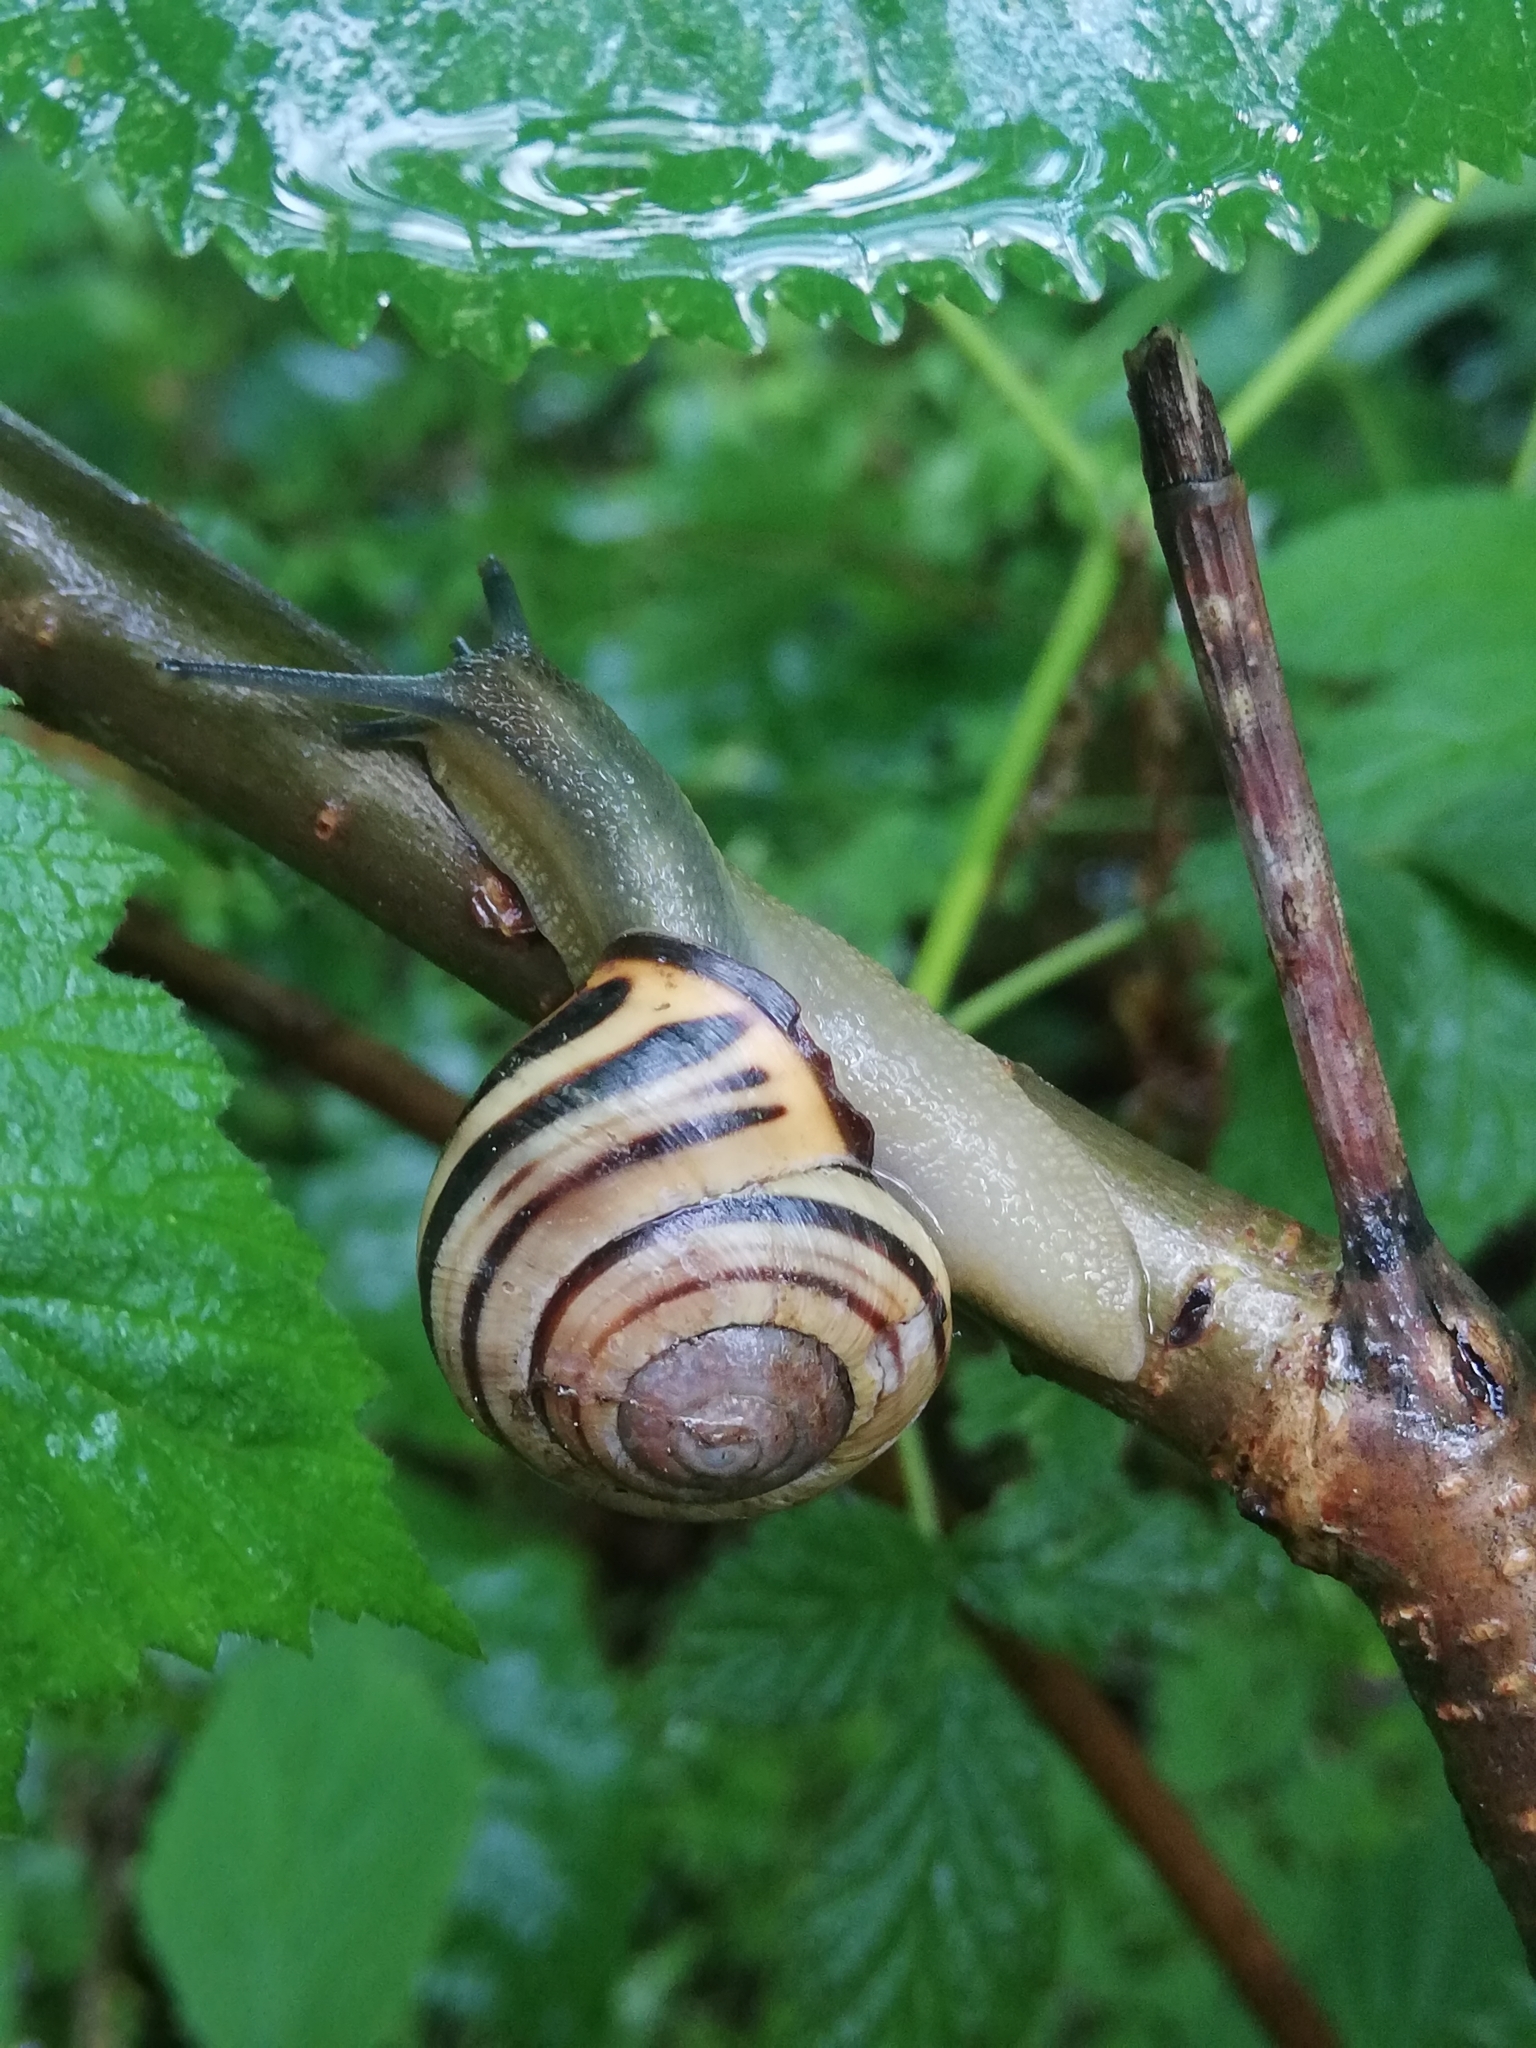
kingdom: Animalia
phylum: Mollusca
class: Gastropoda
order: Stylommatophora
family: Helicidae
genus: Cepaea
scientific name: Cepaea nemoralis
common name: Grovesnail
